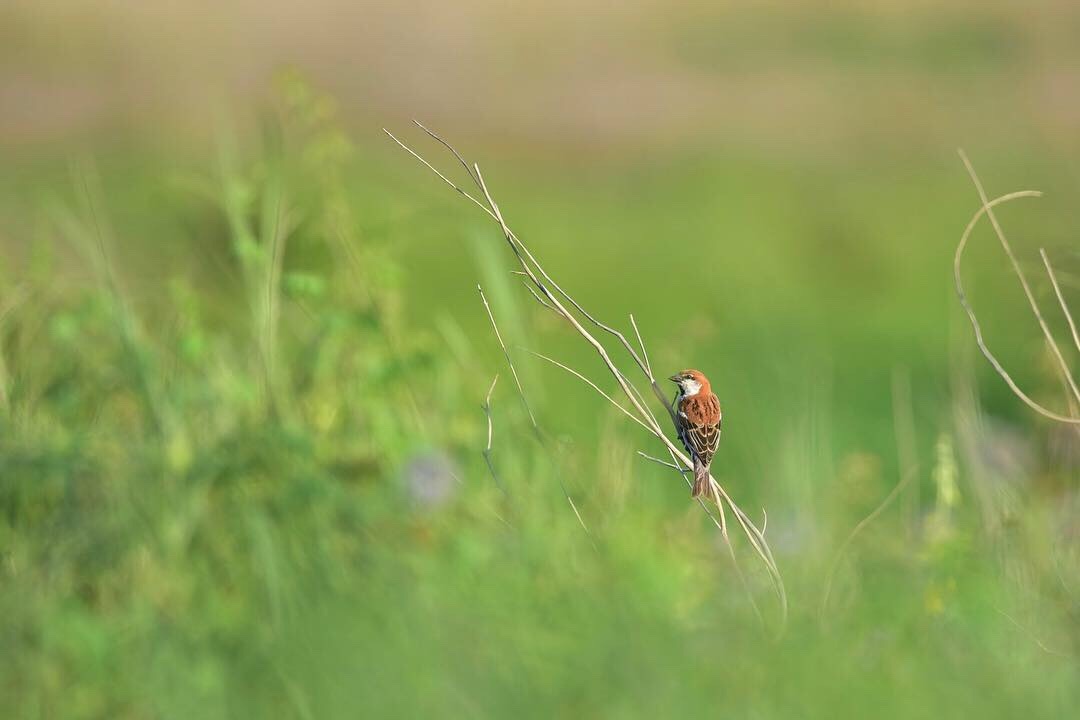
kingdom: Animalia
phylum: Chordata
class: Aves
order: Passeriformes
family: Passeridae
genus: Passer
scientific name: Passer cinnamomeus
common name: Russet sparrow
